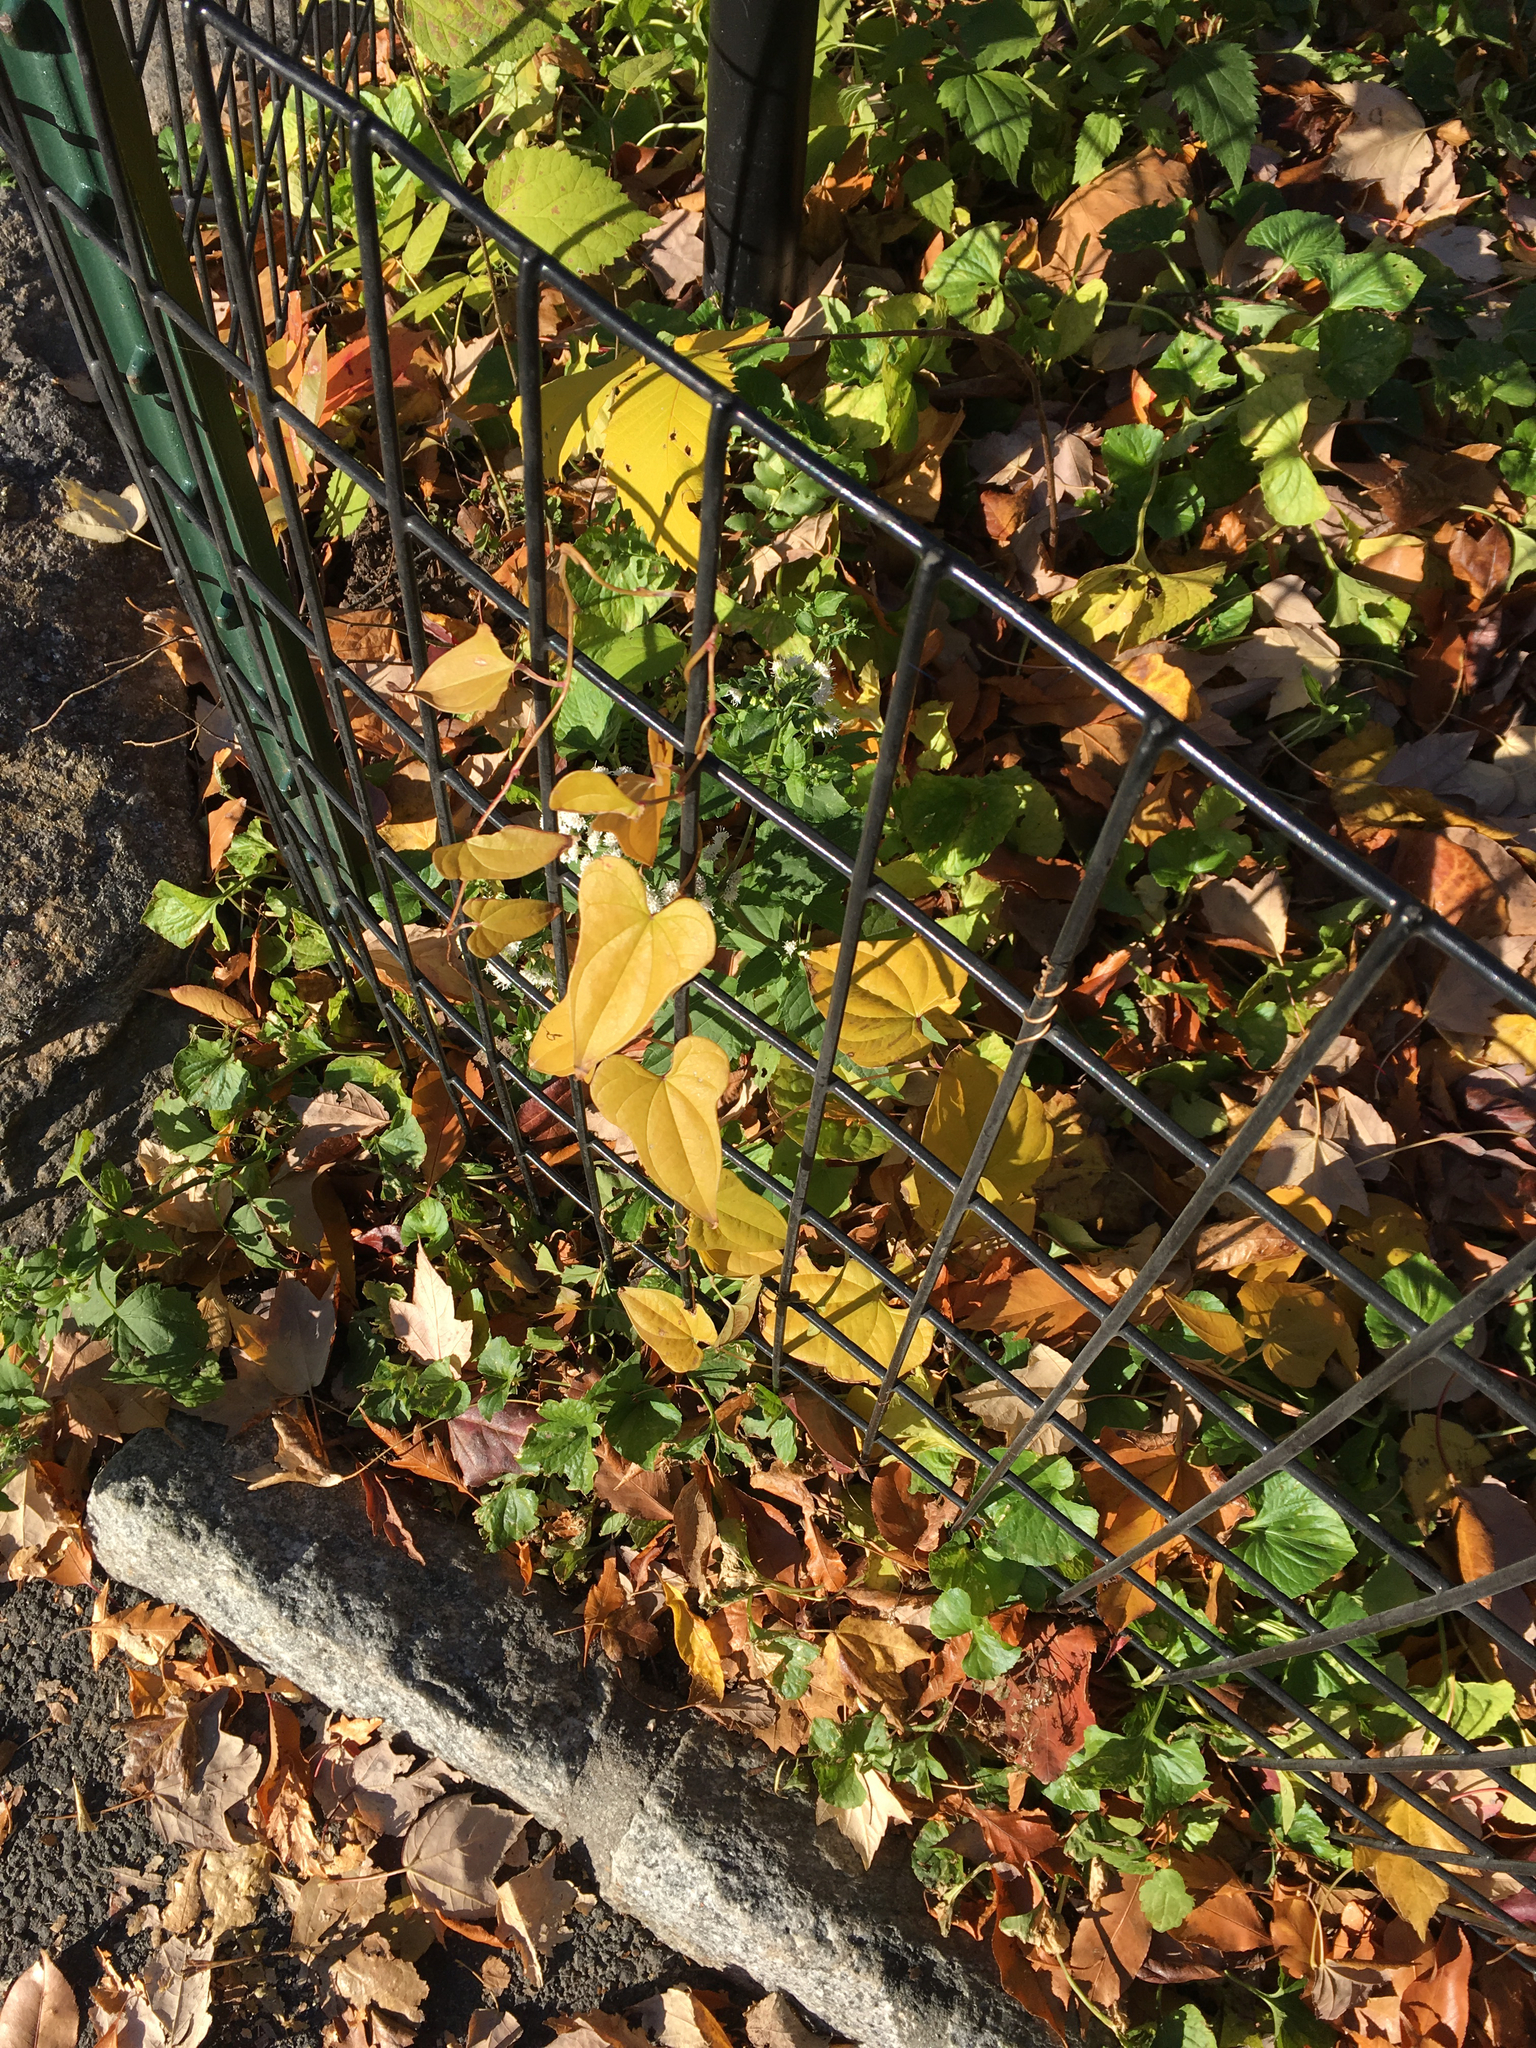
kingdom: Plantae
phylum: Tracheophyta
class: Liliopsida
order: Dioscoreales
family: Dioscoreaceae
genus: Dioscorea
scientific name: Dioscorea polystachya
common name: Chinese yam
